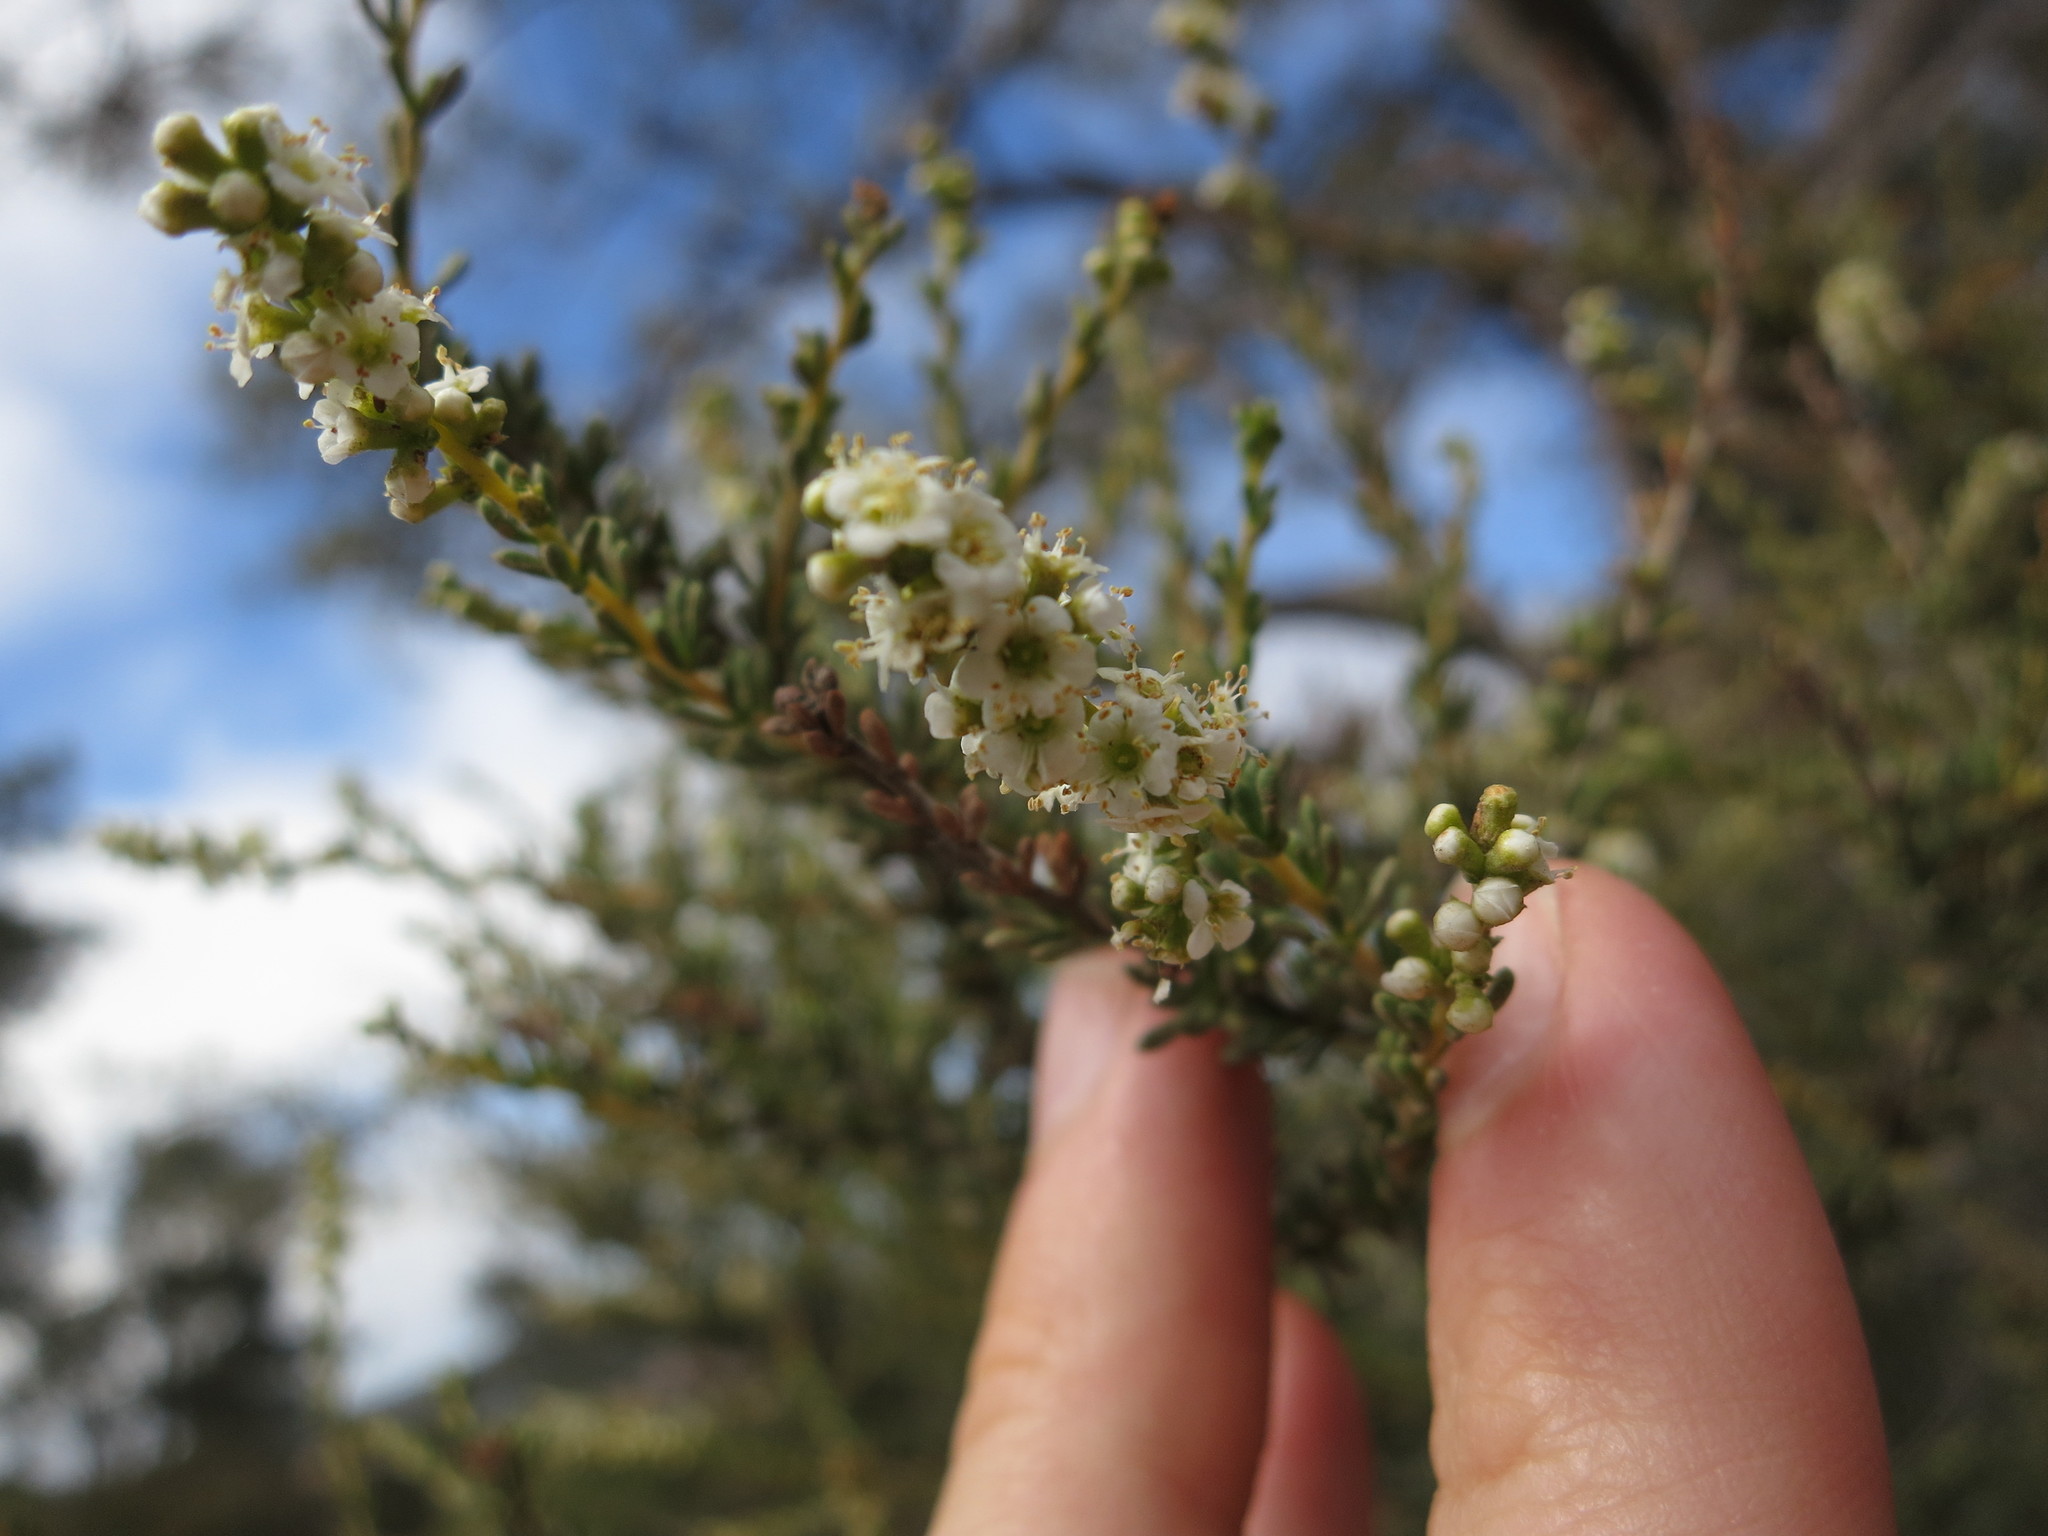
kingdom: Plantae
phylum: Tracheophyta
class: Magnoliopsida
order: Rosales
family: Rosaceae
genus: Adenostoma
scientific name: Adenostoma fasciculatum
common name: Chamise
